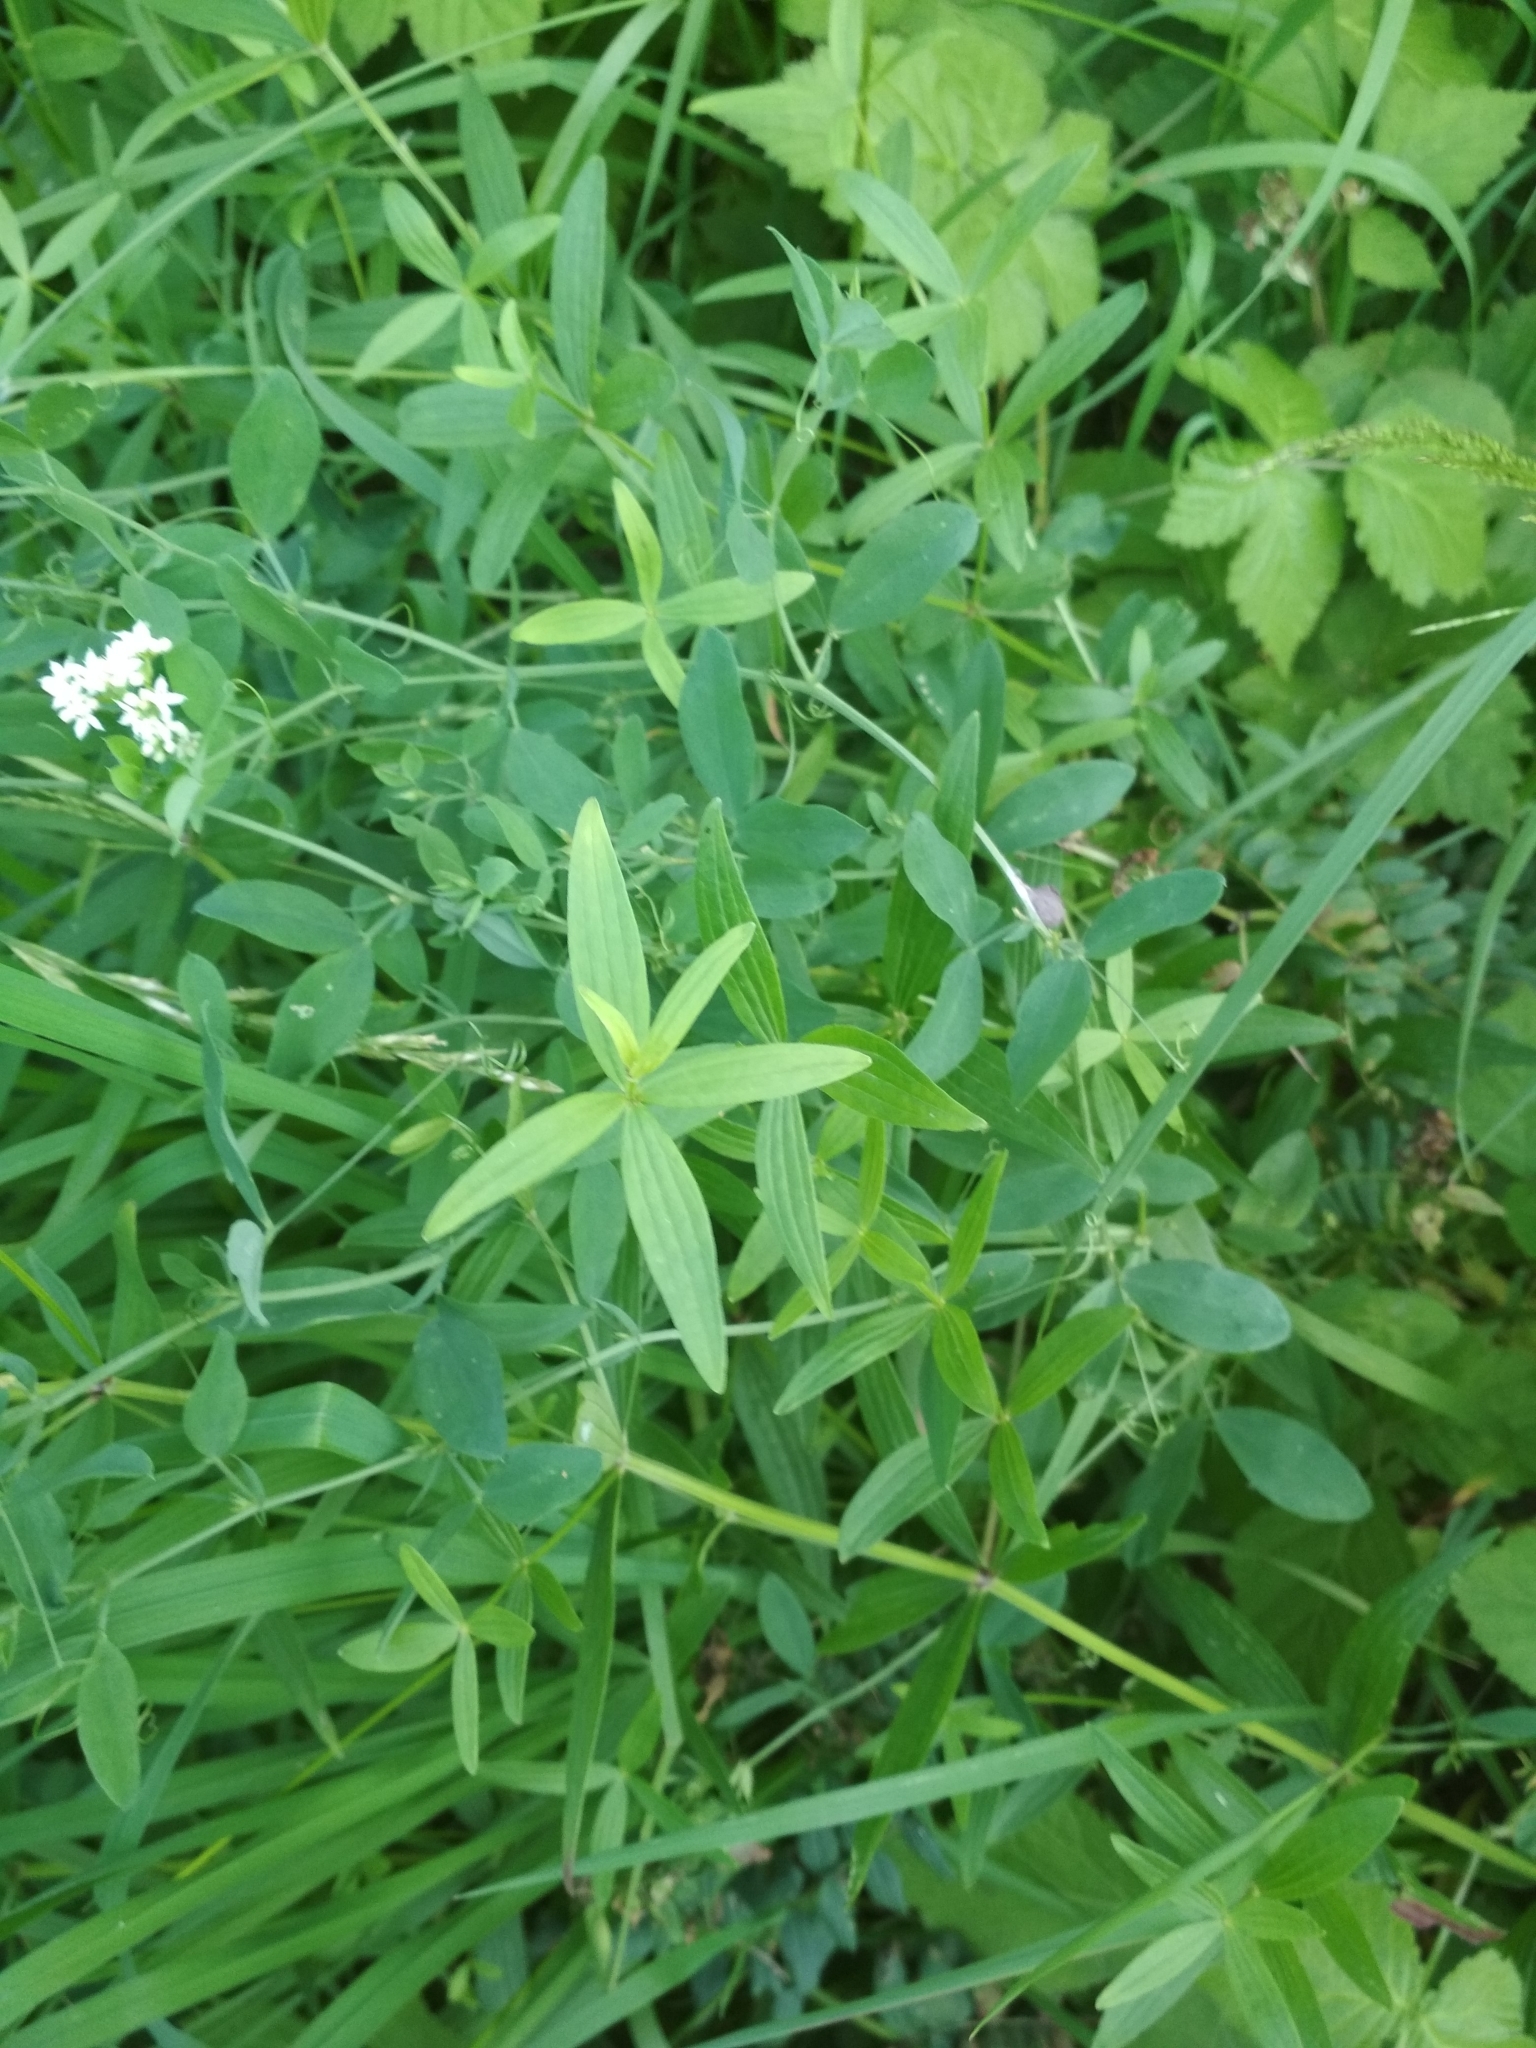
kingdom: Plantae
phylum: Tracheophyta
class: Magnoliopsida
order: Gentianales
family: Rubiaceae
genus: Galium
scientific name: Galium boreale
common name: Northern bedstraw
